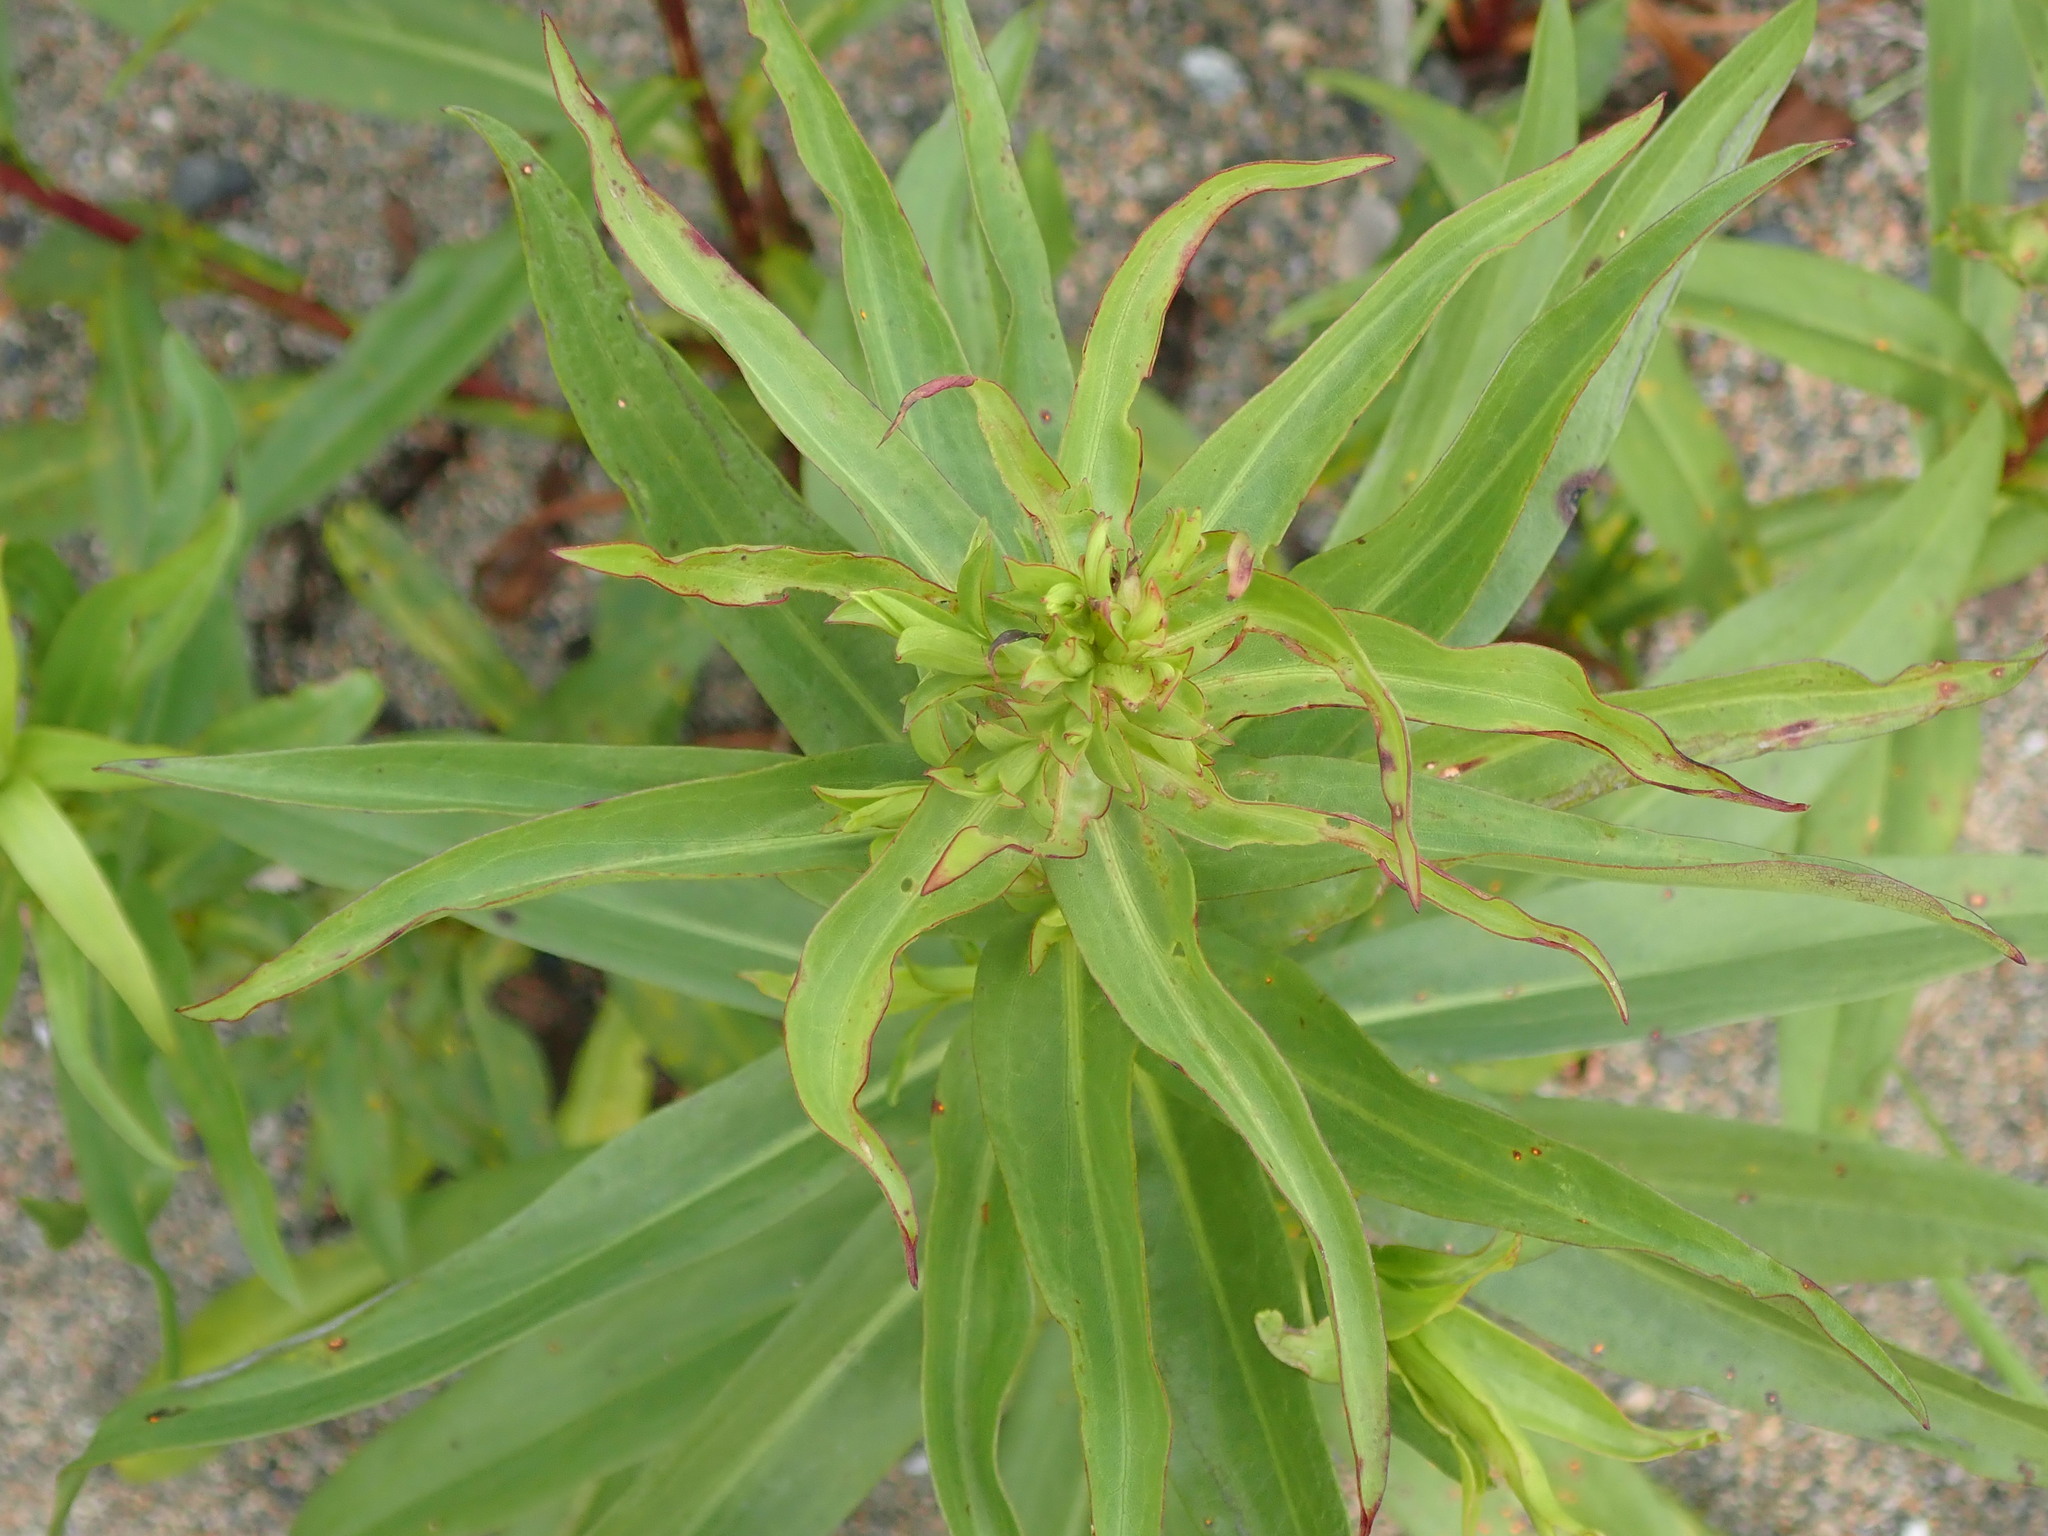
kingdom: Plantae
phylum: Tracheophyta
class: Magnoliopsida
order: Asterales
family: Asteraceae
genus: Solidago
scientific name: Solidago sempervirens
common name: Salt-marsh goldenrod
